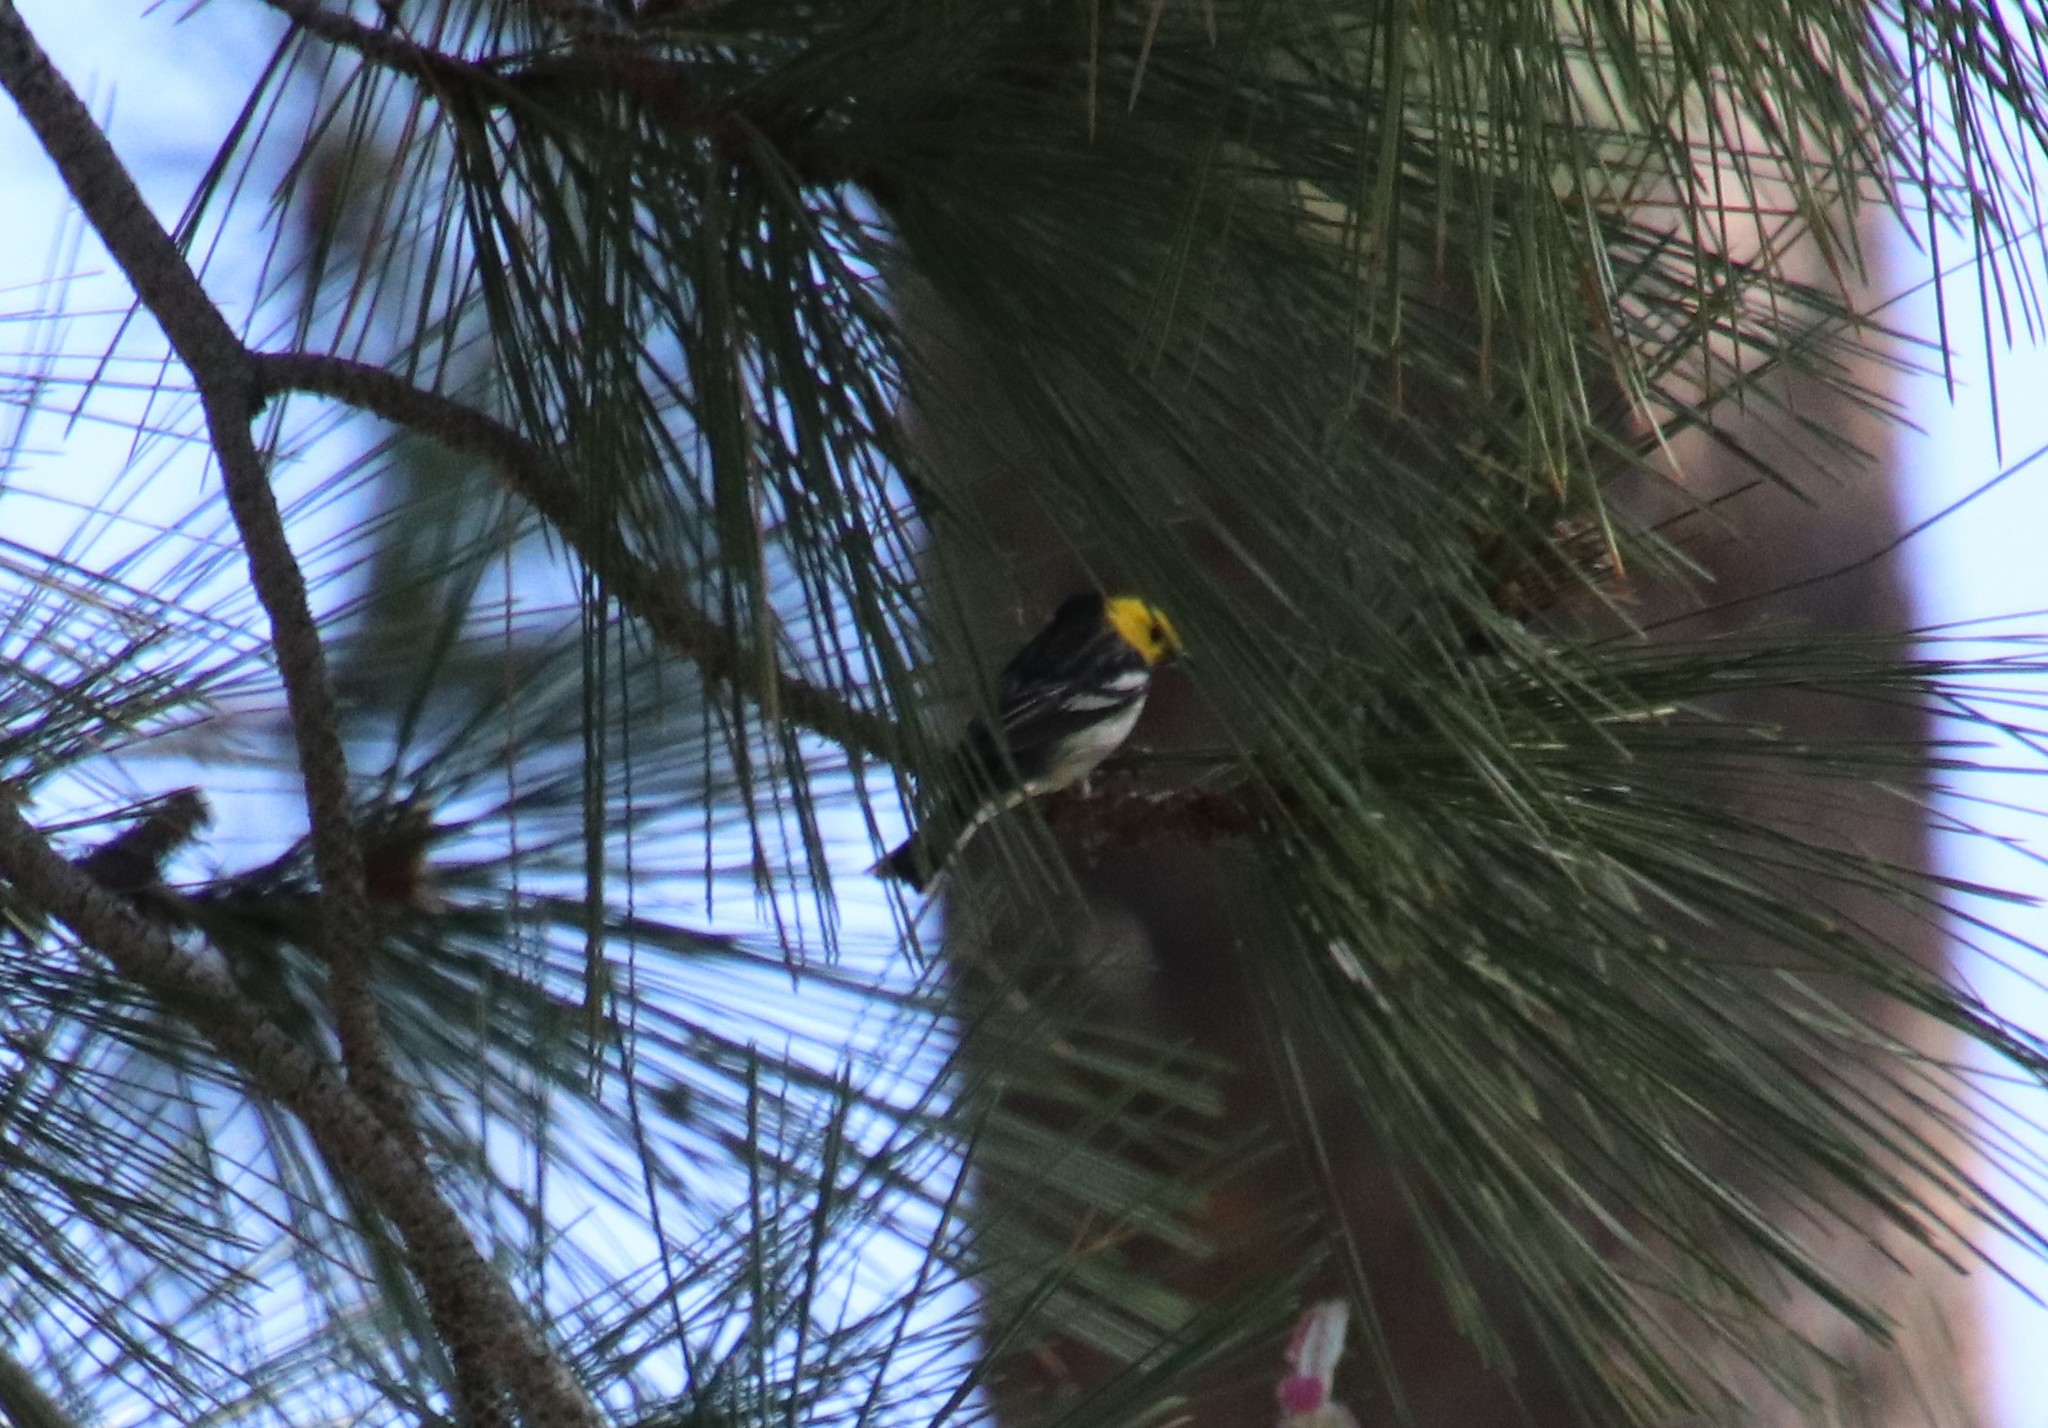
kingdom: Animalia
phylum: Chordata
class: Aves
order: Passeriformes
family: Parulidae
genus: Setophaga
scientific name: Setophaga occidentalis
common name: Hermit warbler
